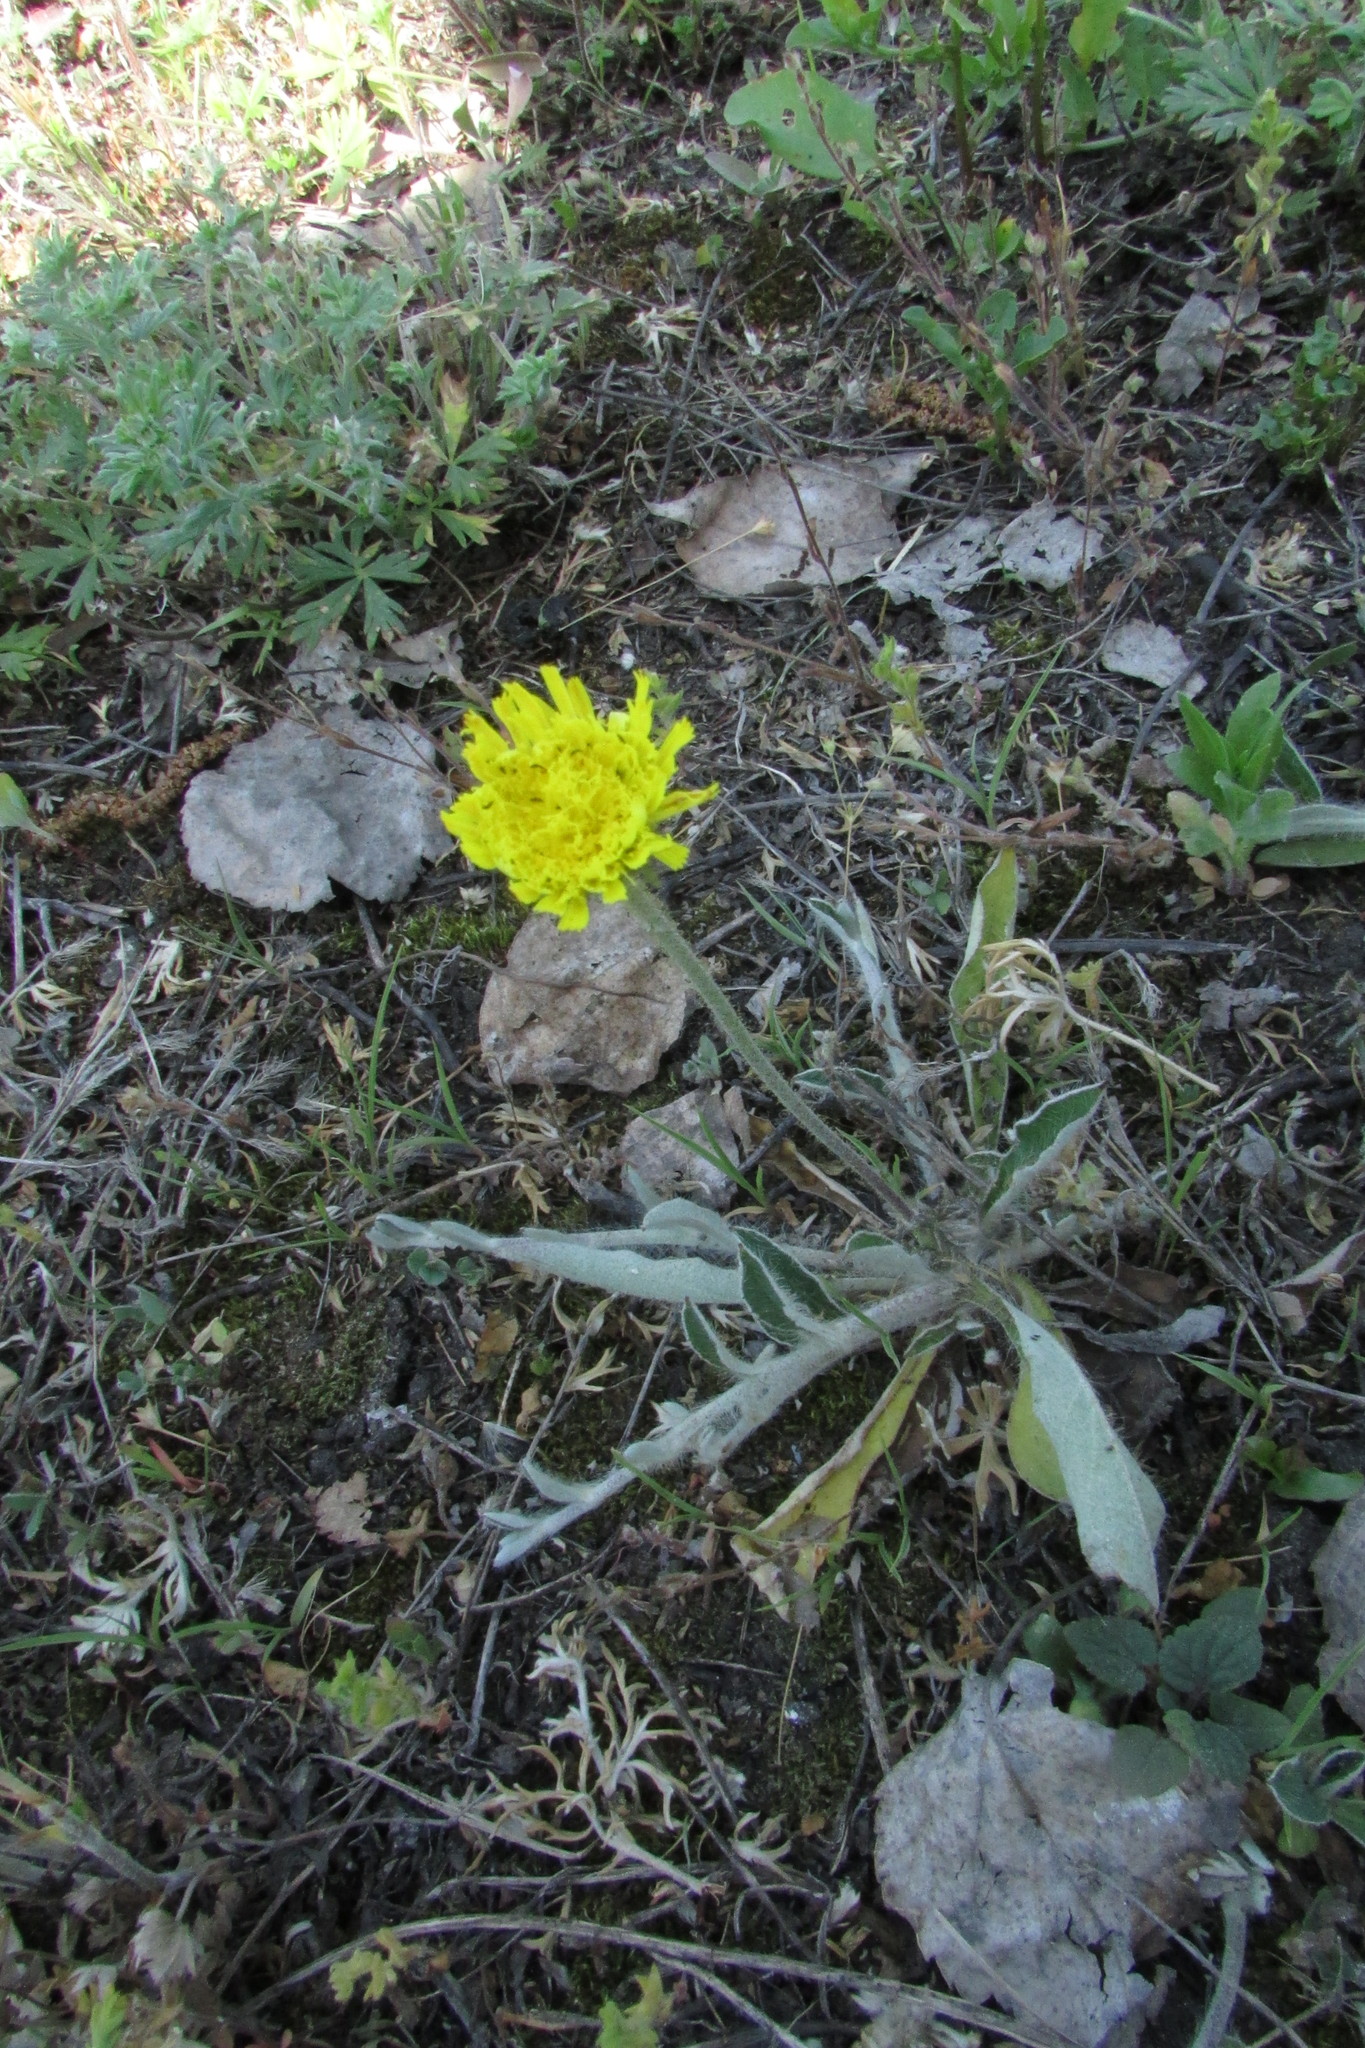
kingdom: Plantae
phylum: Tracheophyta
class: Magnoliopsida
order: Asterales
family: Asteraceae
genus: Pilosella
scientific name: Pilosella officinarum
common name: Mouse-ear hawkweed
